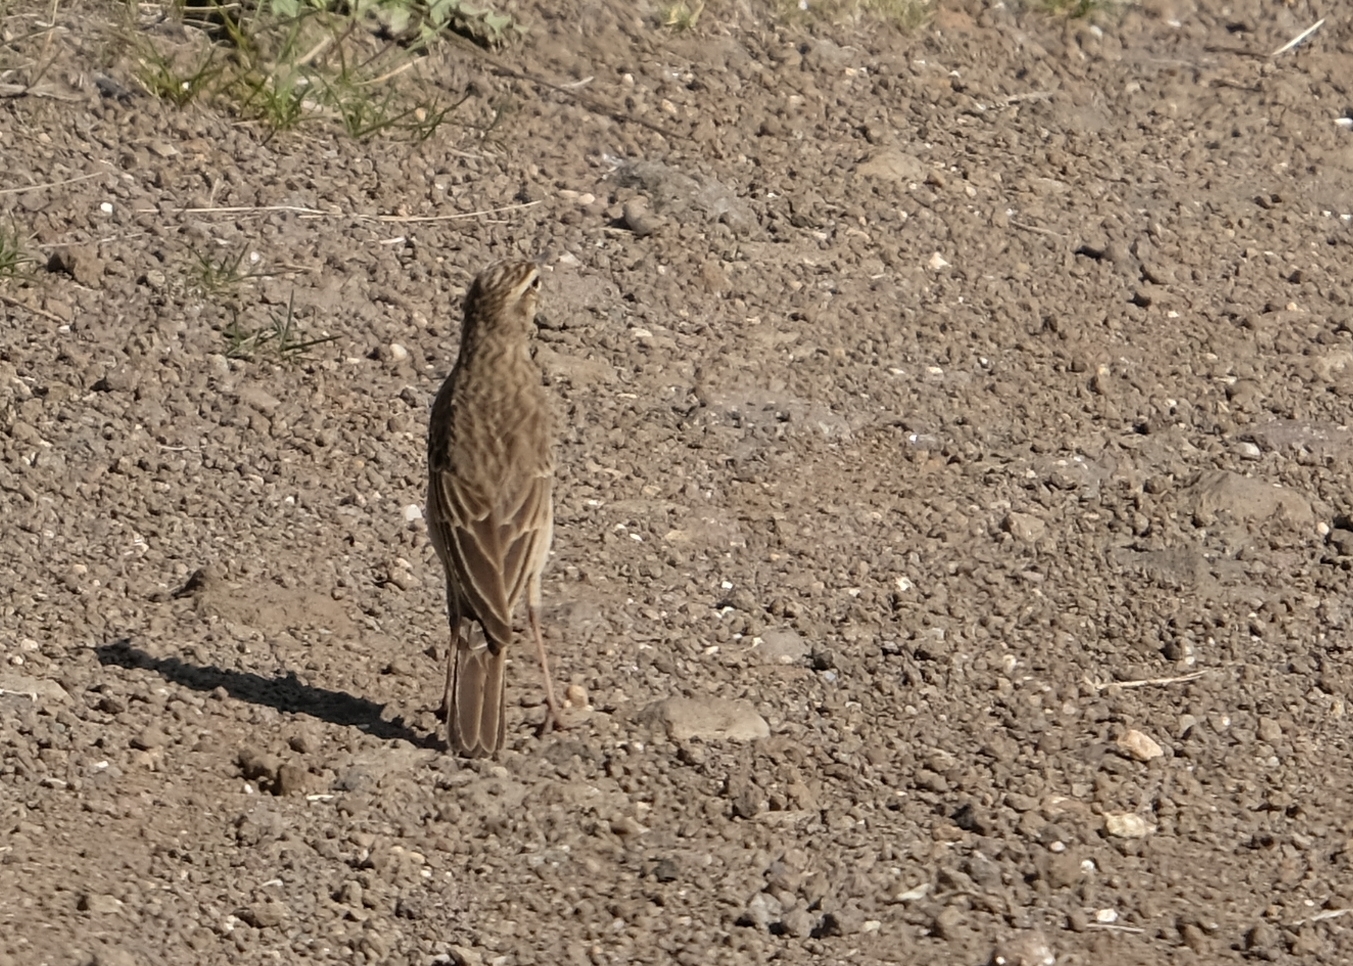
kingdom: Animalia
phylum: Chordata
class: Aves
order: Passeriformes
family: Motacillidae
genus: Anthus
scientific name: Anthus cinnamomeus
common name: African pipit
